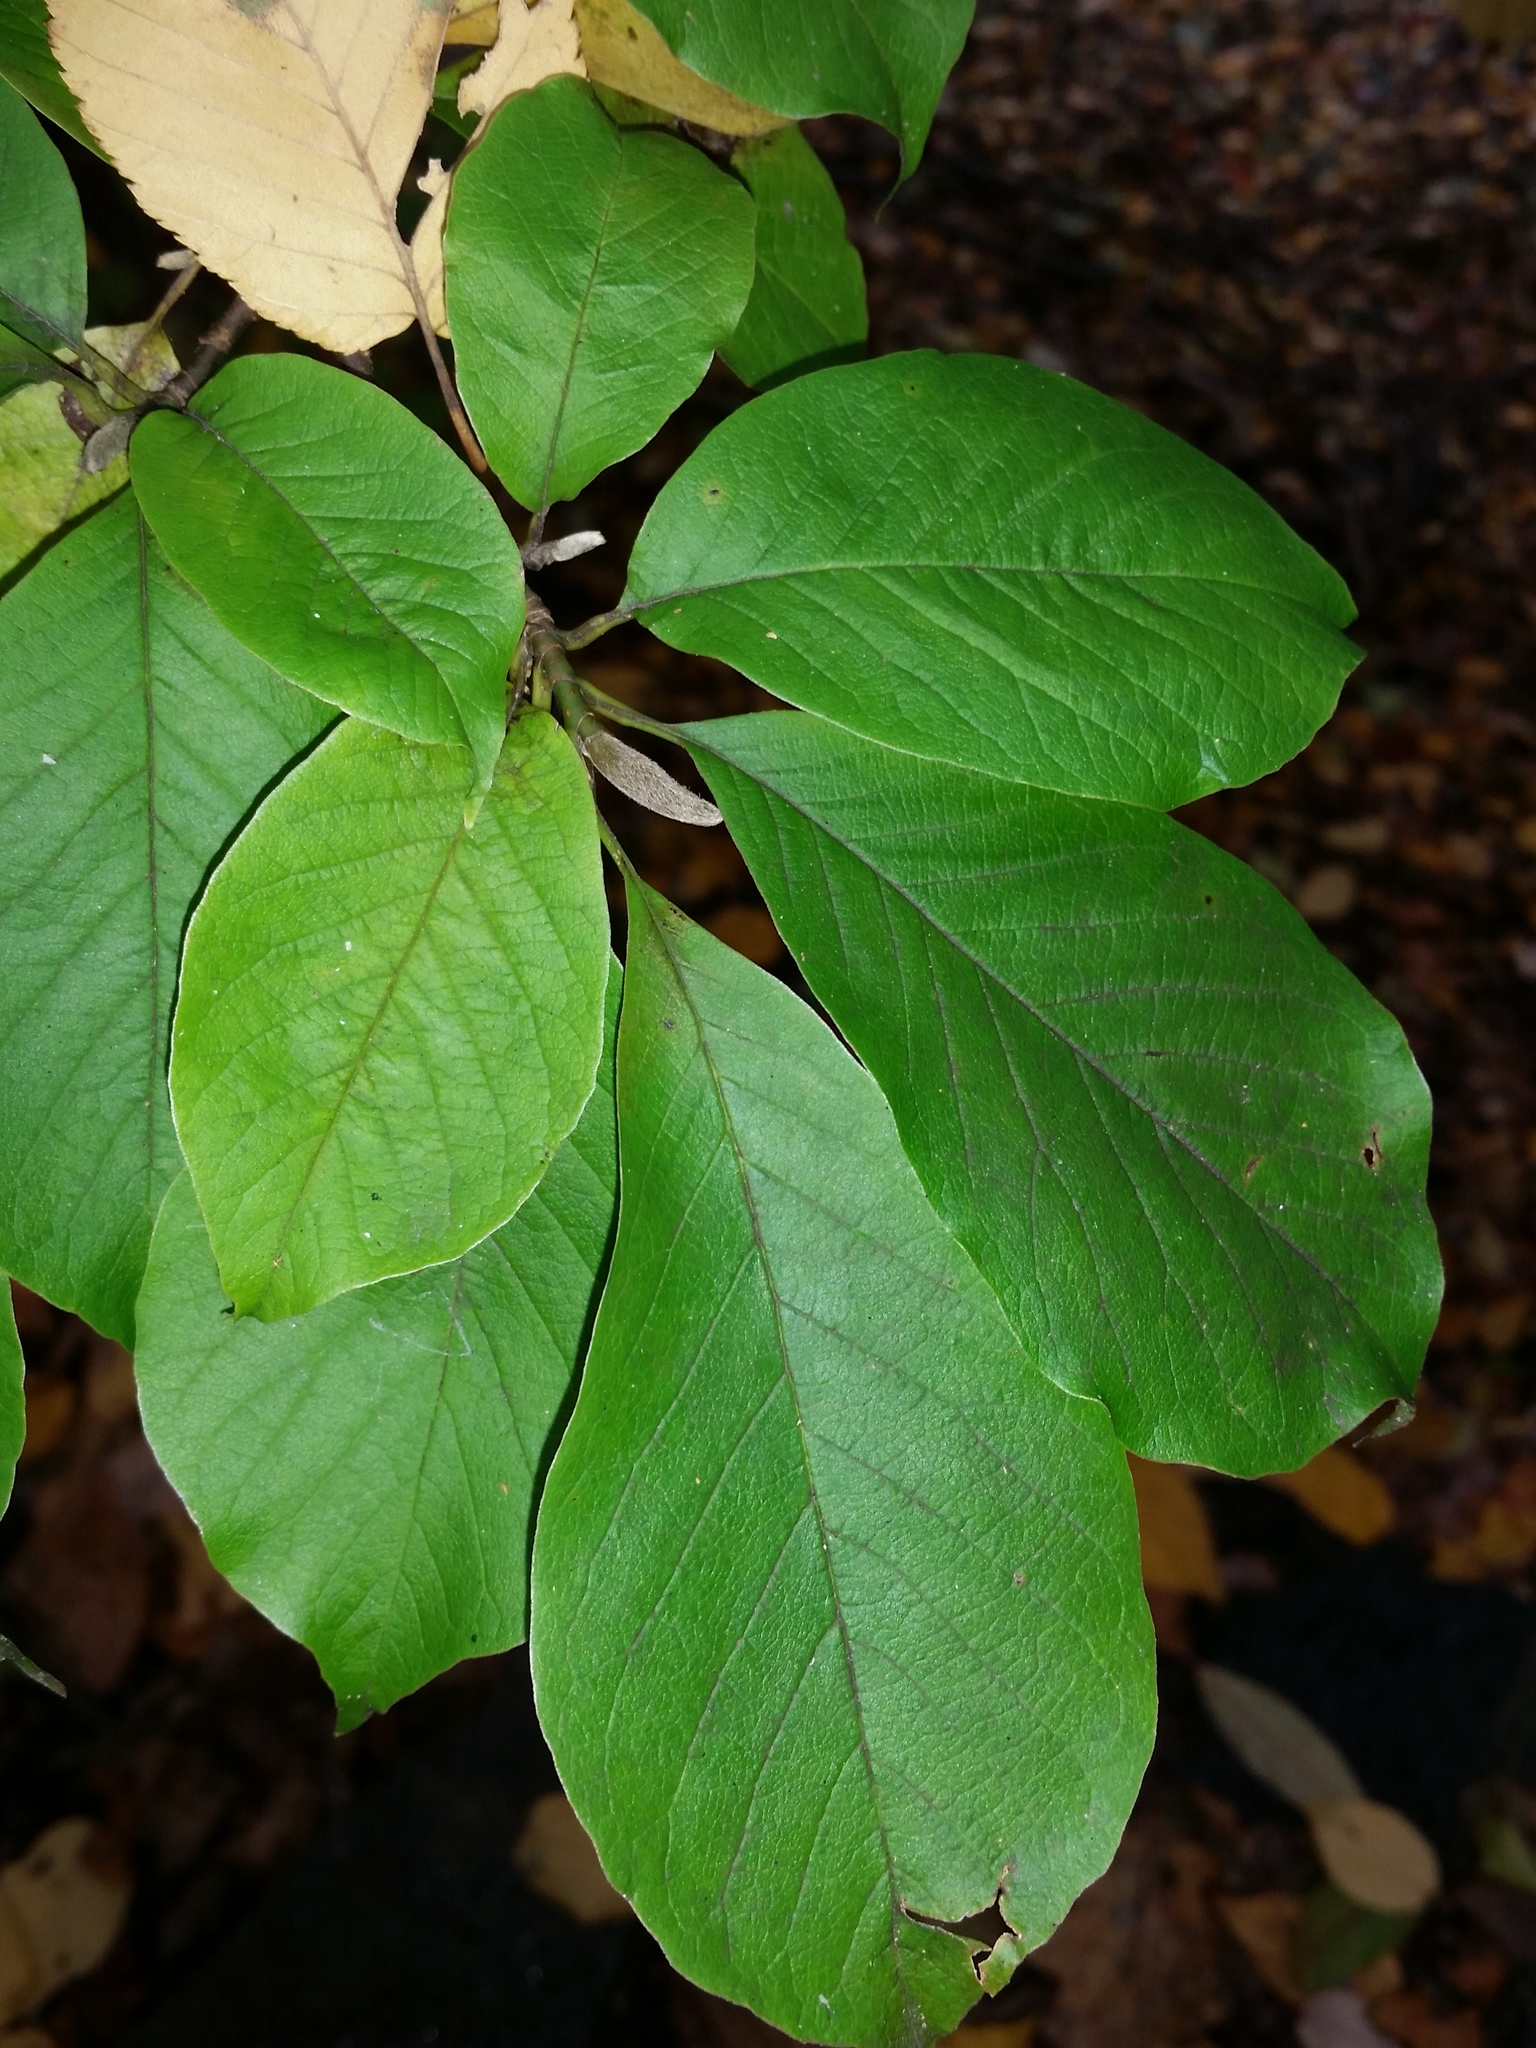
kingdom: Plantae
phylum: Tracheophyta
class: Magnoliopsida
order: Magnoliales
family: Magnoliaceae
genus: Magnolia
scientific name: Magnolia kobus
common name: Kobus magnolia
